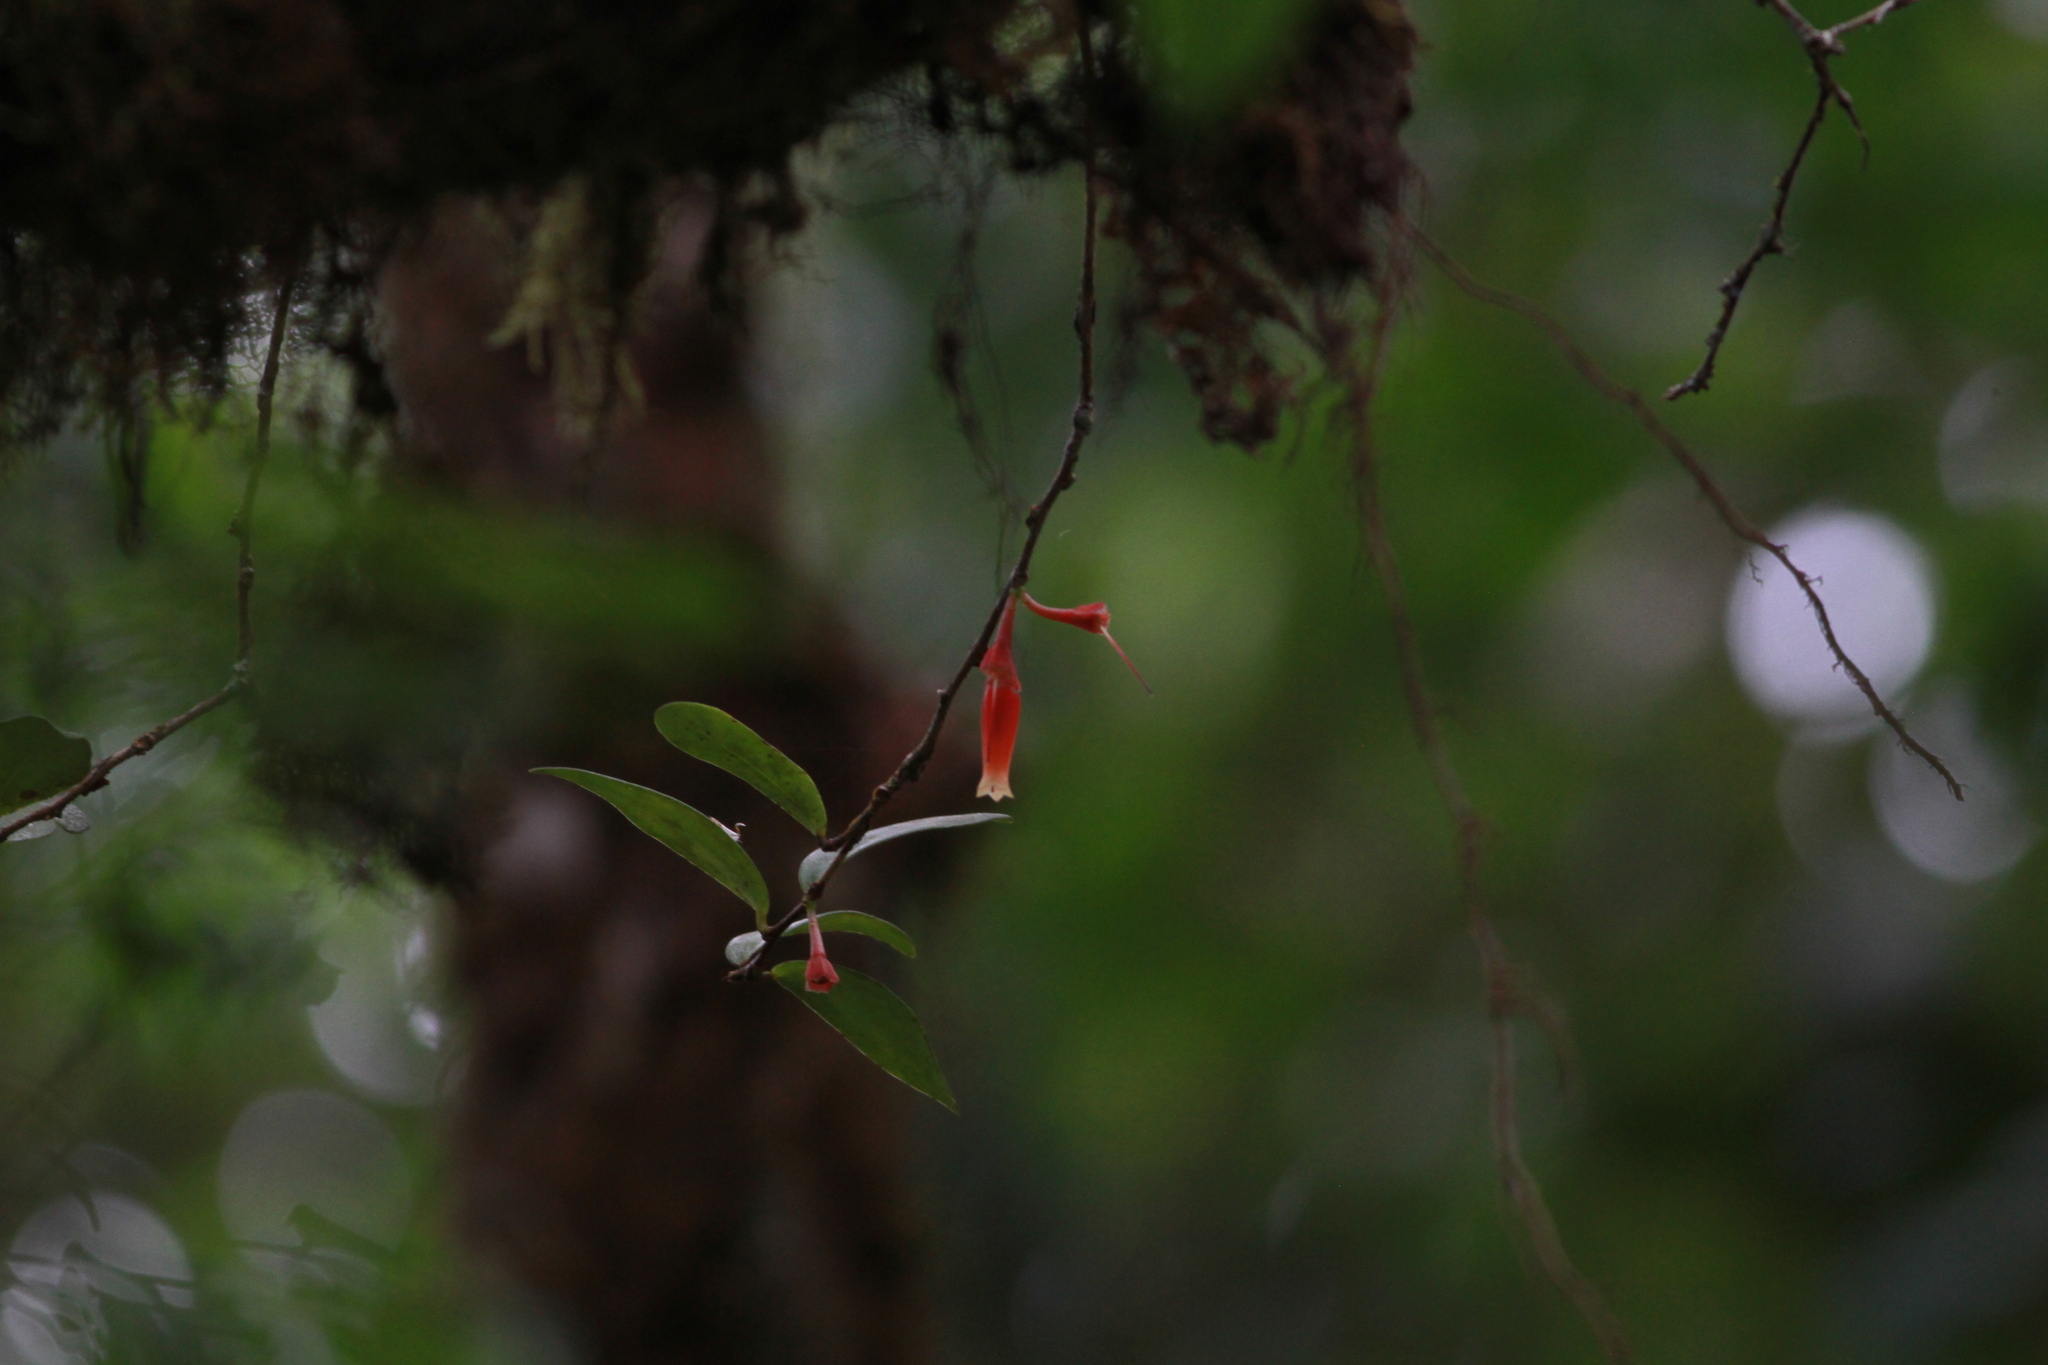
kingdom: Plantae
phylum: Tracheophyta
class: Magnoliopsida
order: Ericales
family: Ericaceae
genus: Macleania
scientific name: Macleania insignis
